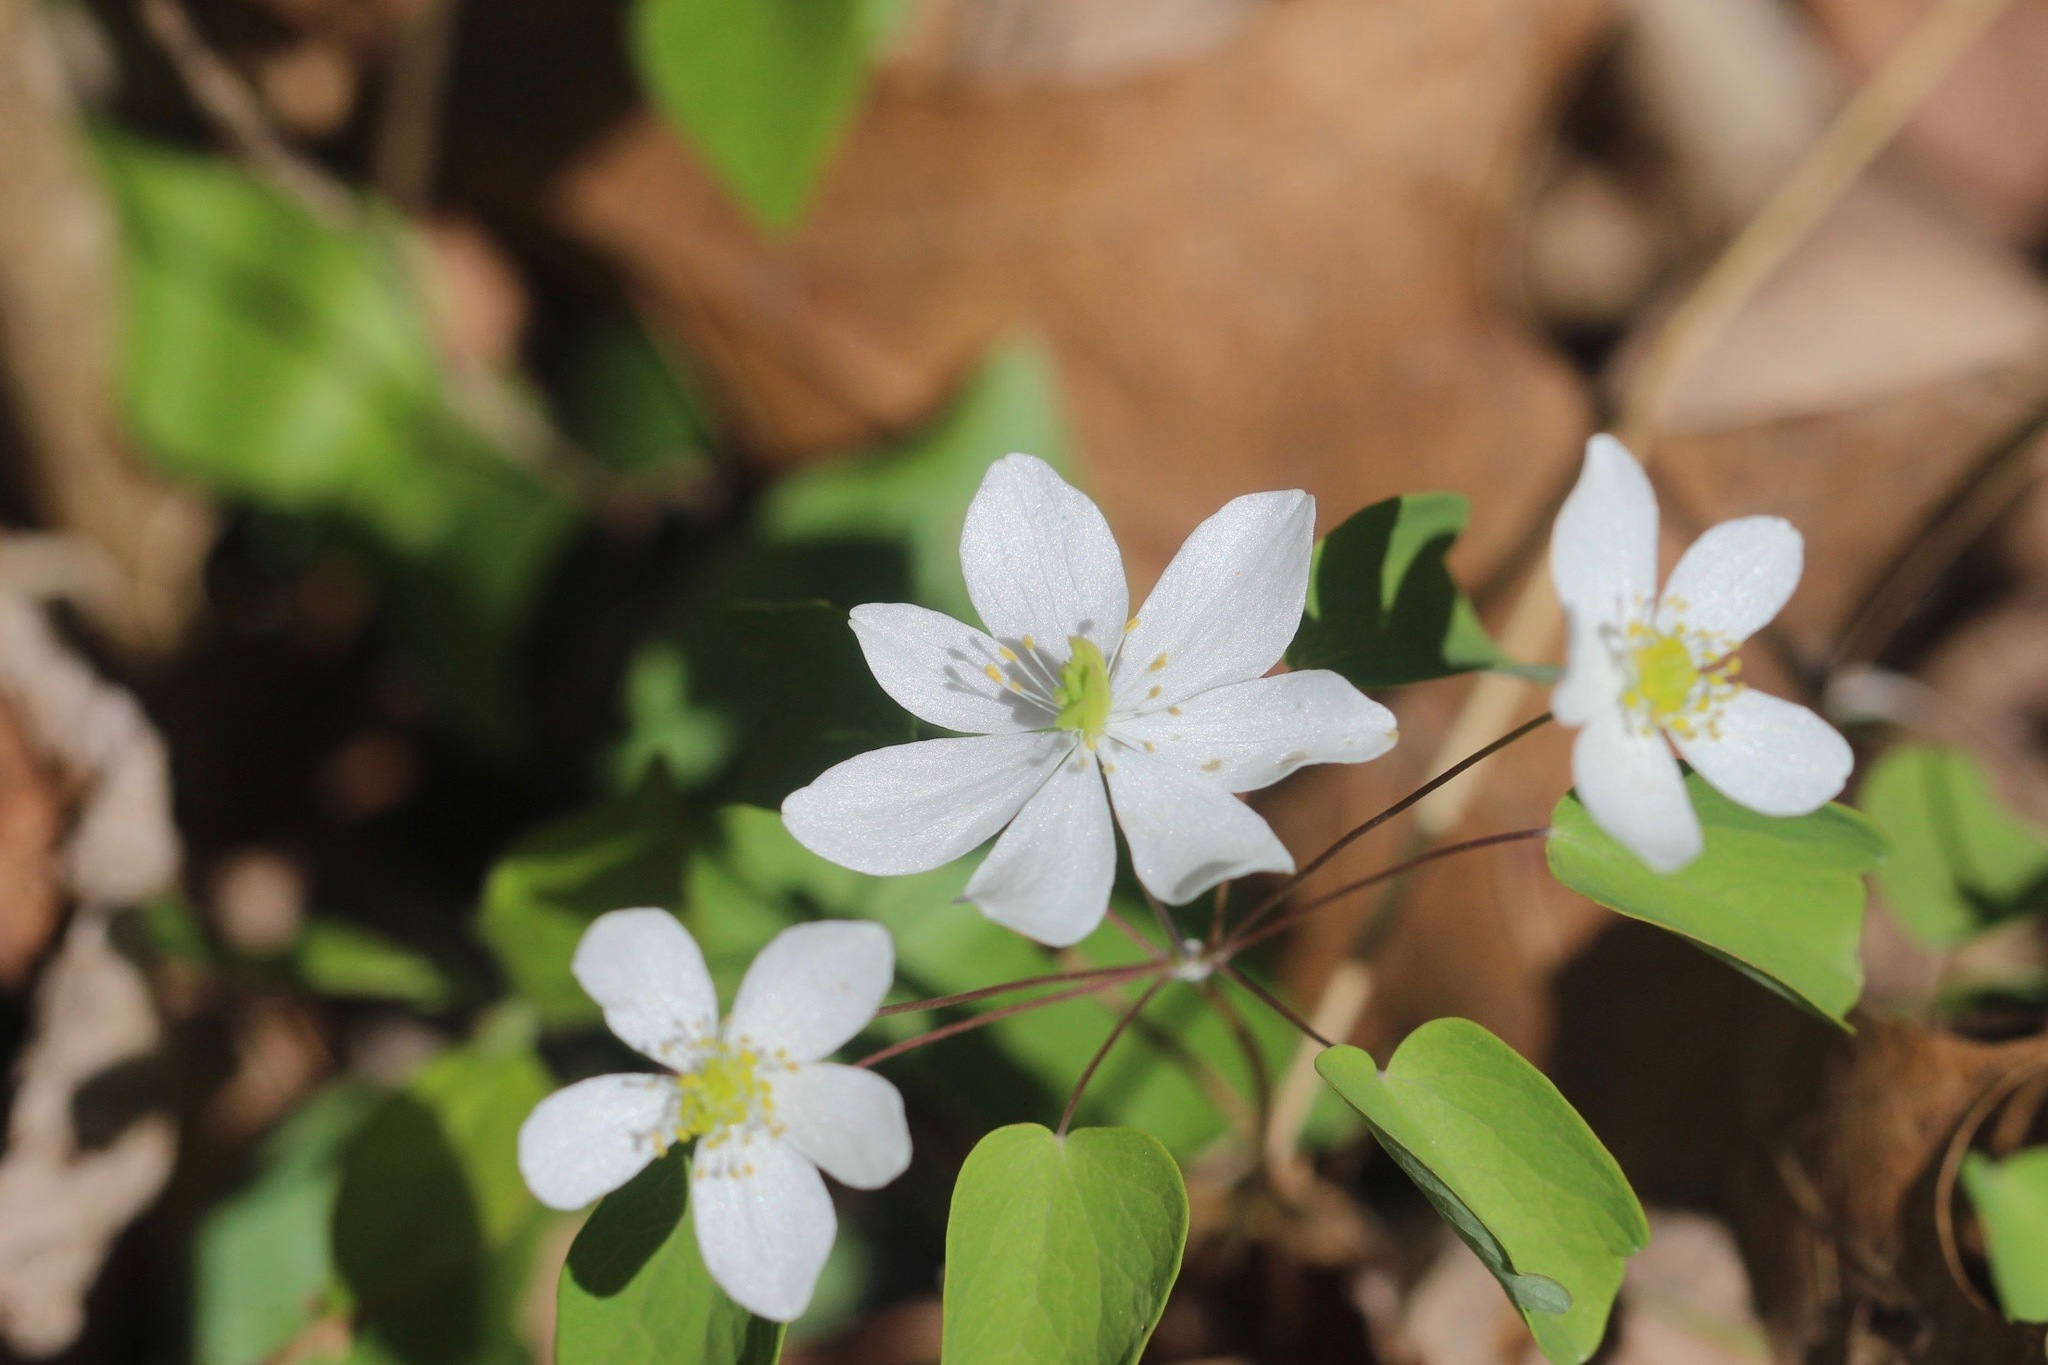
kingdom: Plantae
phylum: Tracheophyta
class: Magnoliopsida
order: Ranunculales
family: Ranunculaceae
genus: Thalictrum
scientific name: Thalictrum thalictroides
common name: Rue-anemone
